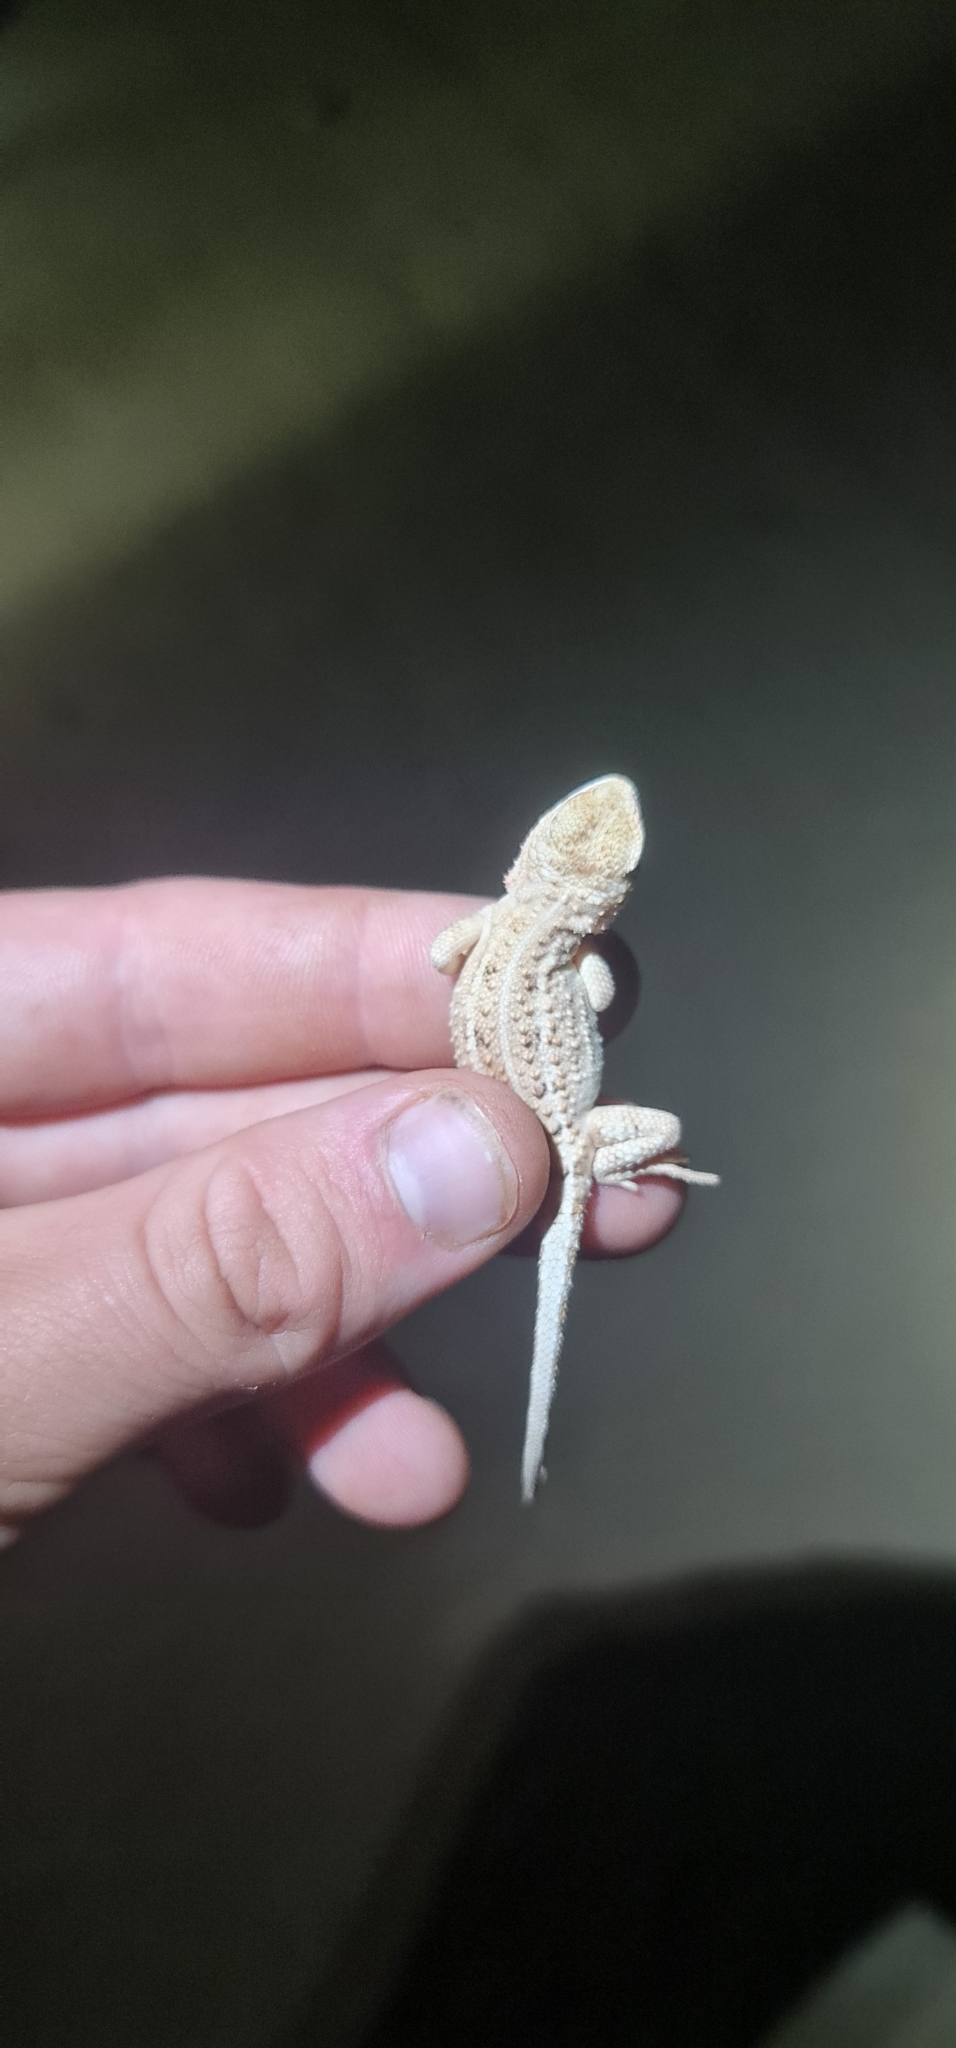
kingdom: Animalia
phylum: Chordata
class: Squamata
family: Agamidae
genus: Tympanocryptis
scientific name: Tympanocryptis tetraporophora
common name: Eyrean earless dragon
